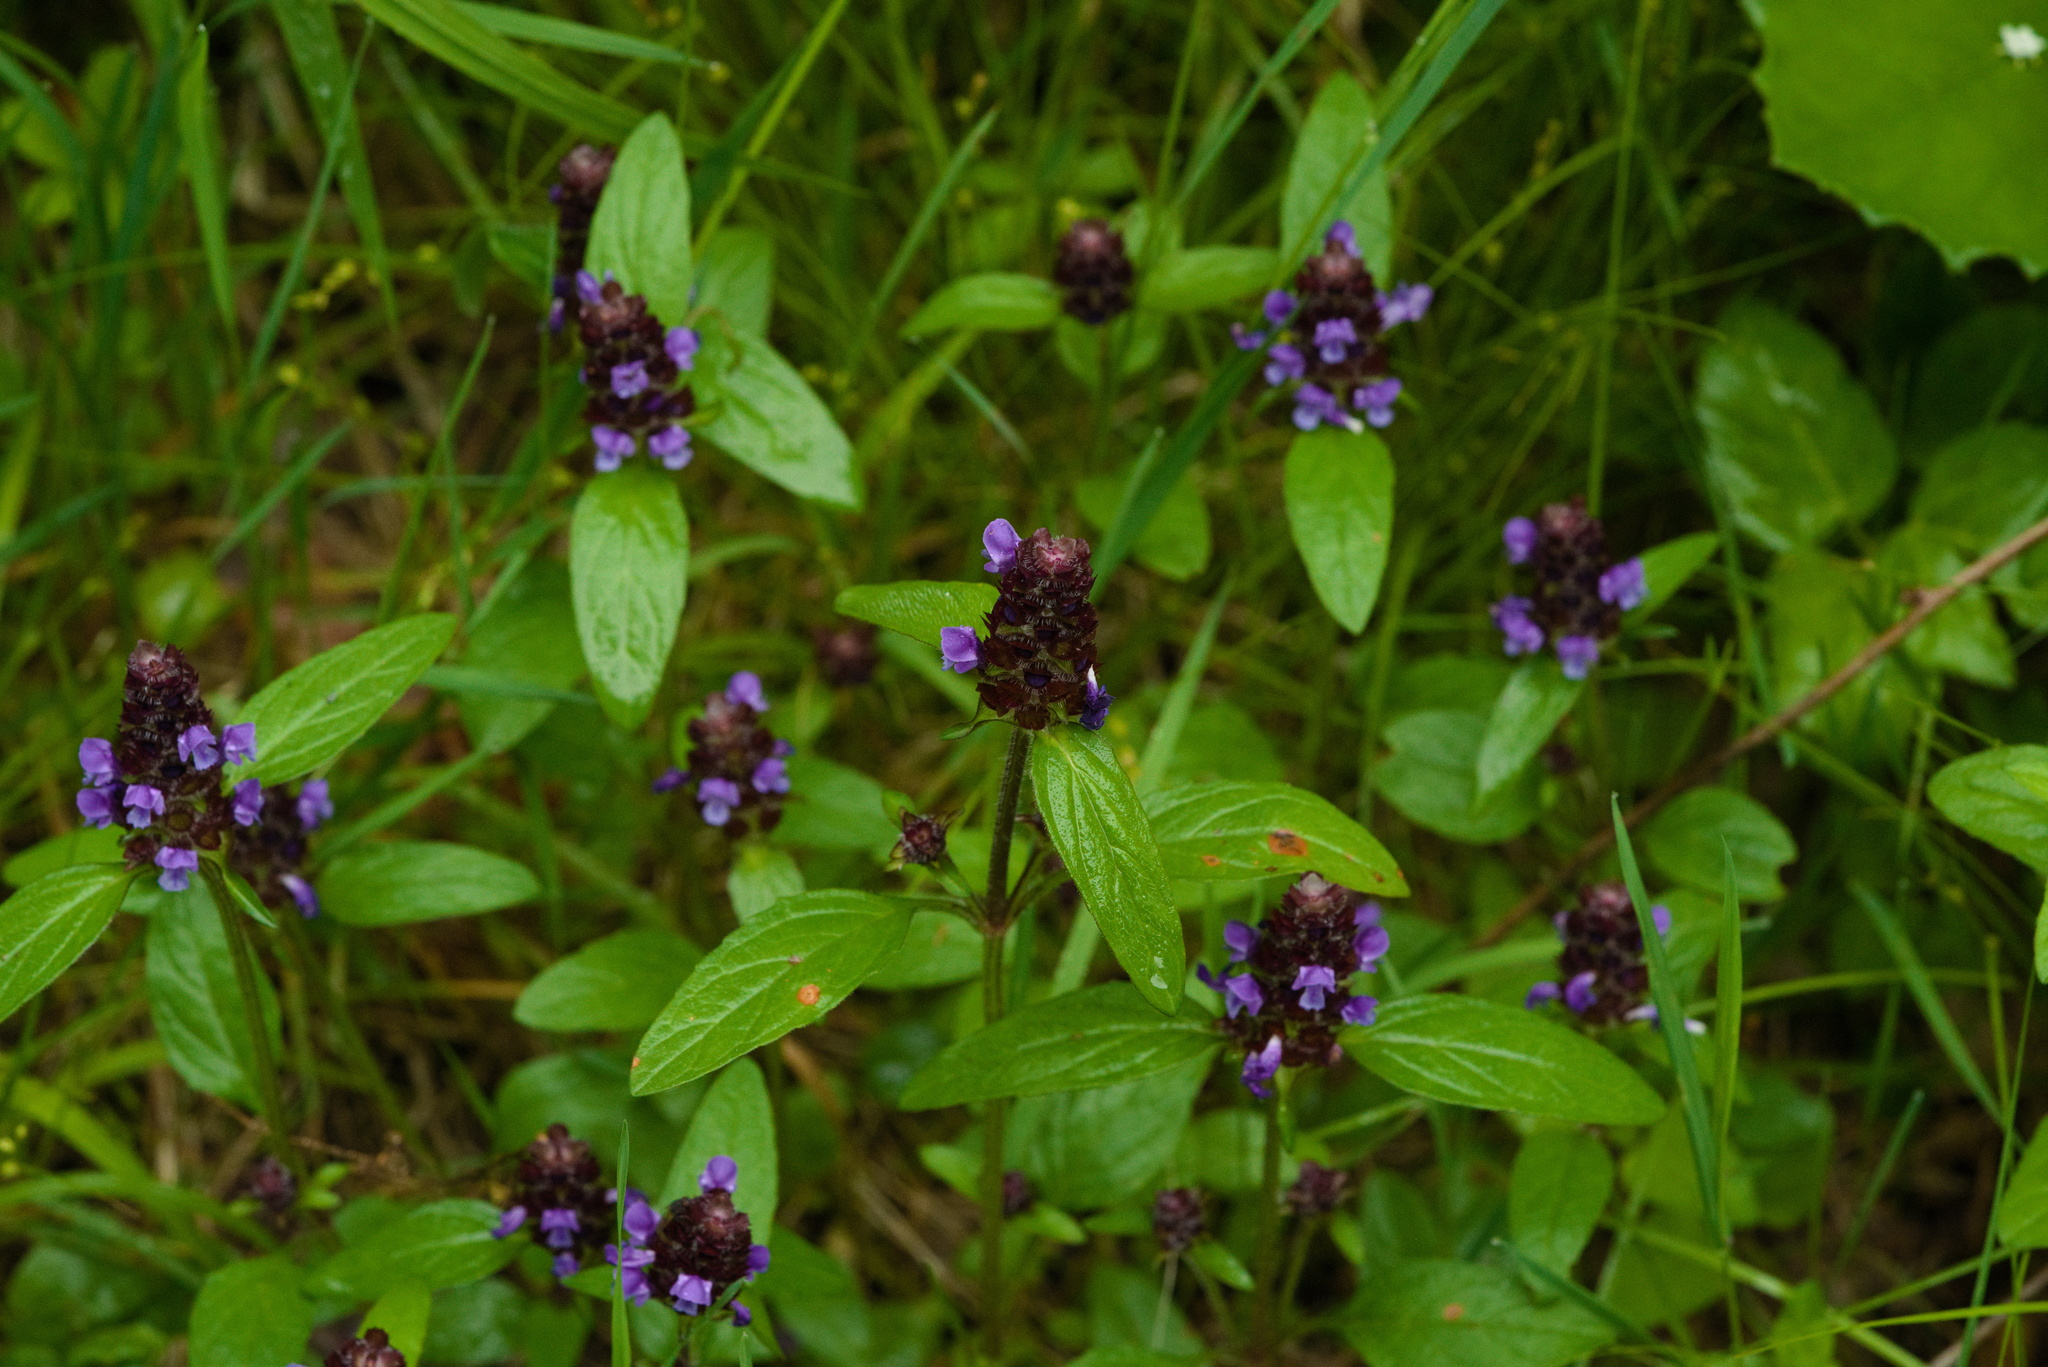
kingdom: Plantae
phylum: Tracheophyta
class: Magnoliopsida
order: Lamiales
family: Lamiaceae
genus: Prunella
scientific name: Prunella vulgaris
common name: Heal-all
